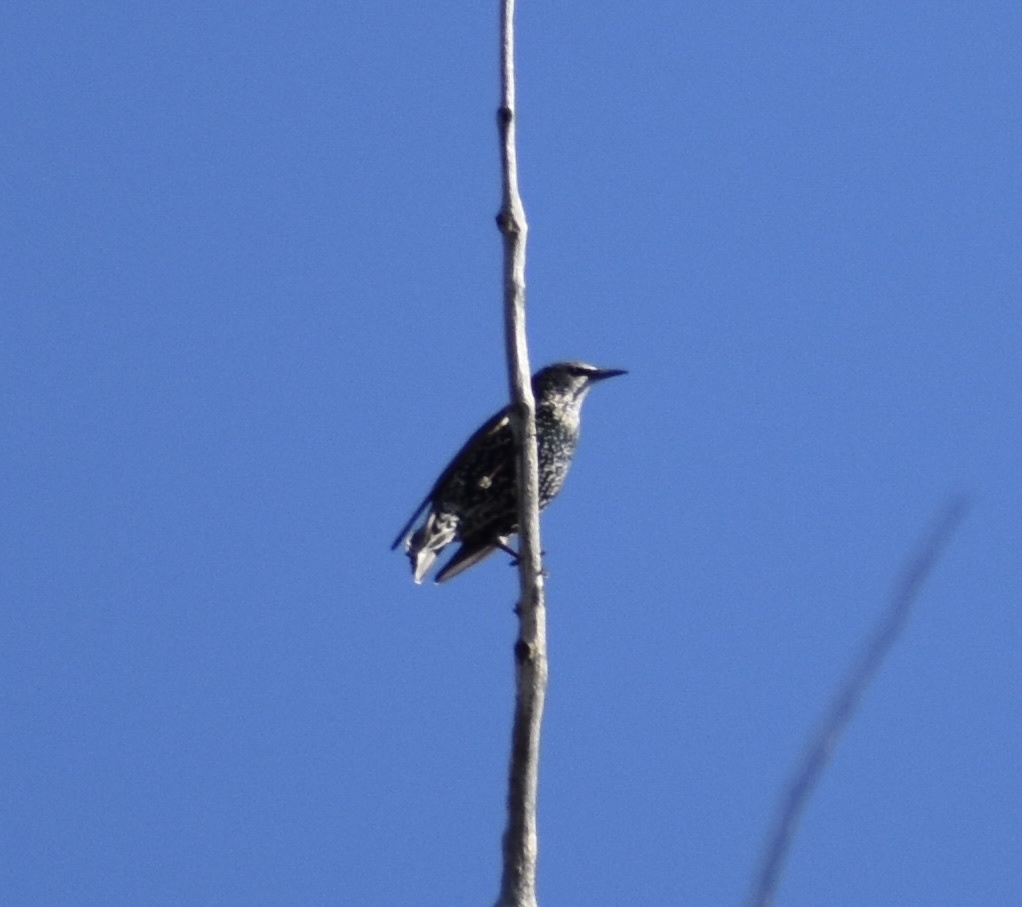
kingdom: Animalia
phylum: Chordata
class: Aves
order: Passeriformes
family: Sturnidae
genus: Sturnus
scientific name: Sturnus vulgaris
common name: Common starling
